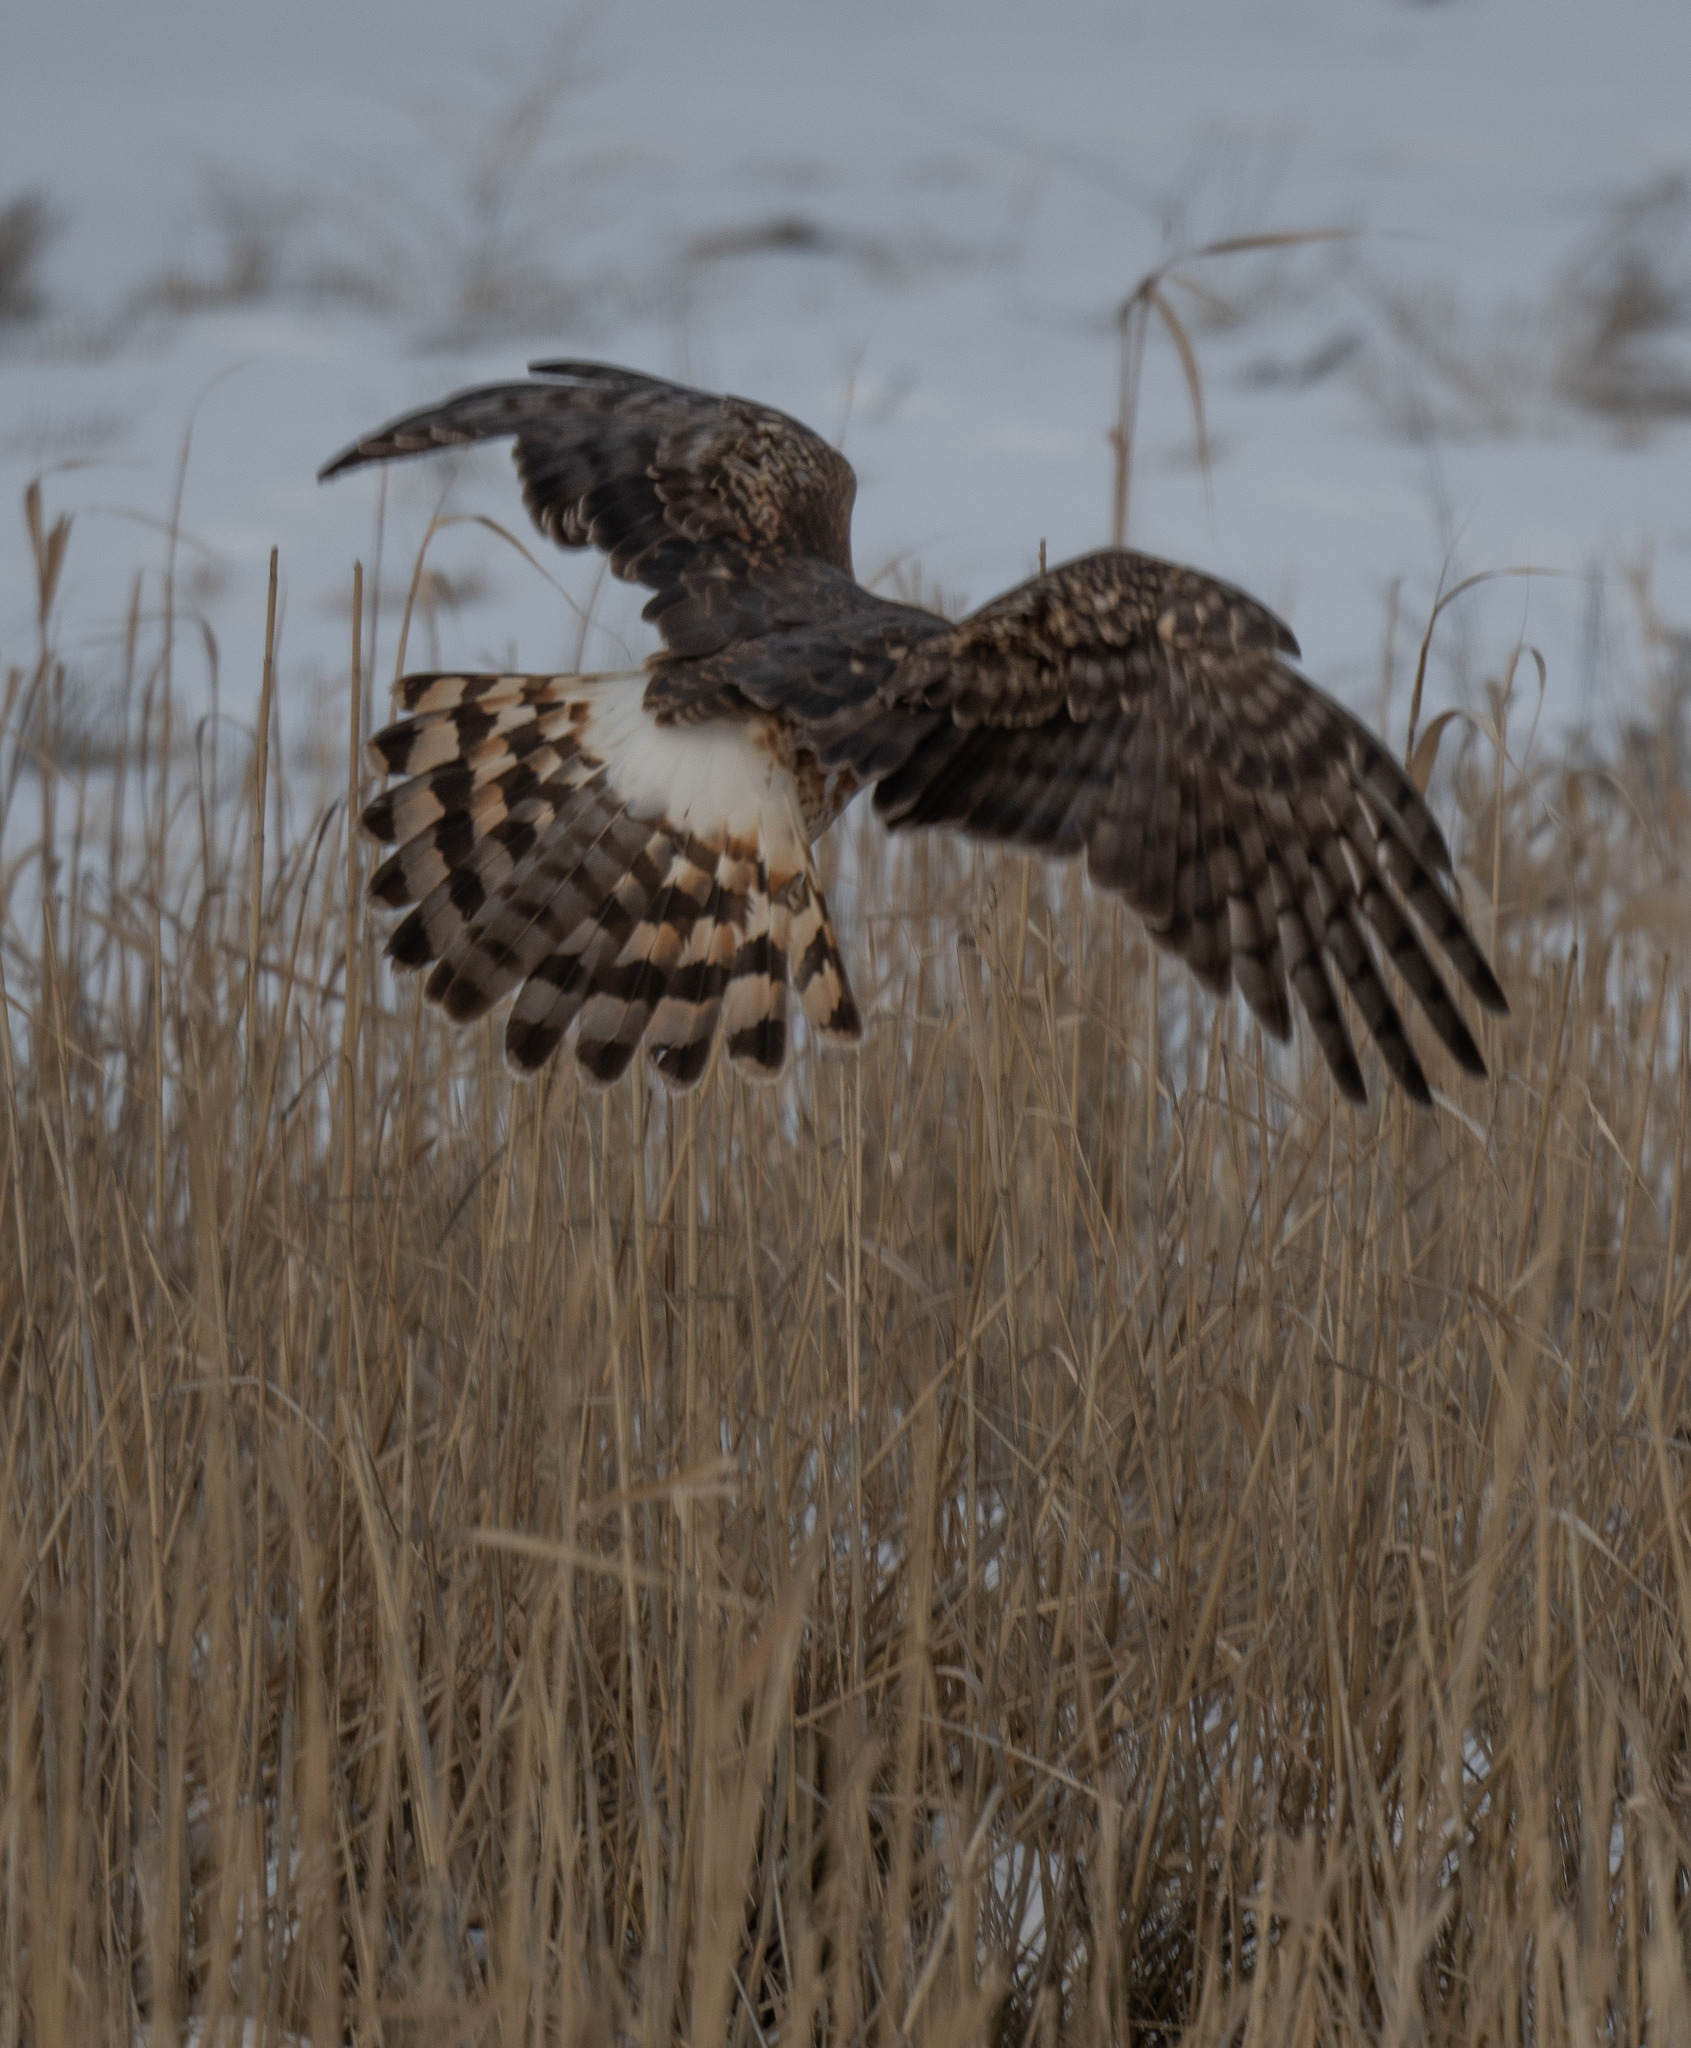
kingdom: Animalia
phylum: Chordata
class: Aves
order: Accipitriformes
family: Accipitridae
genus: Circus
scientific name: Circus cyaneus
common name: Hen harrier
